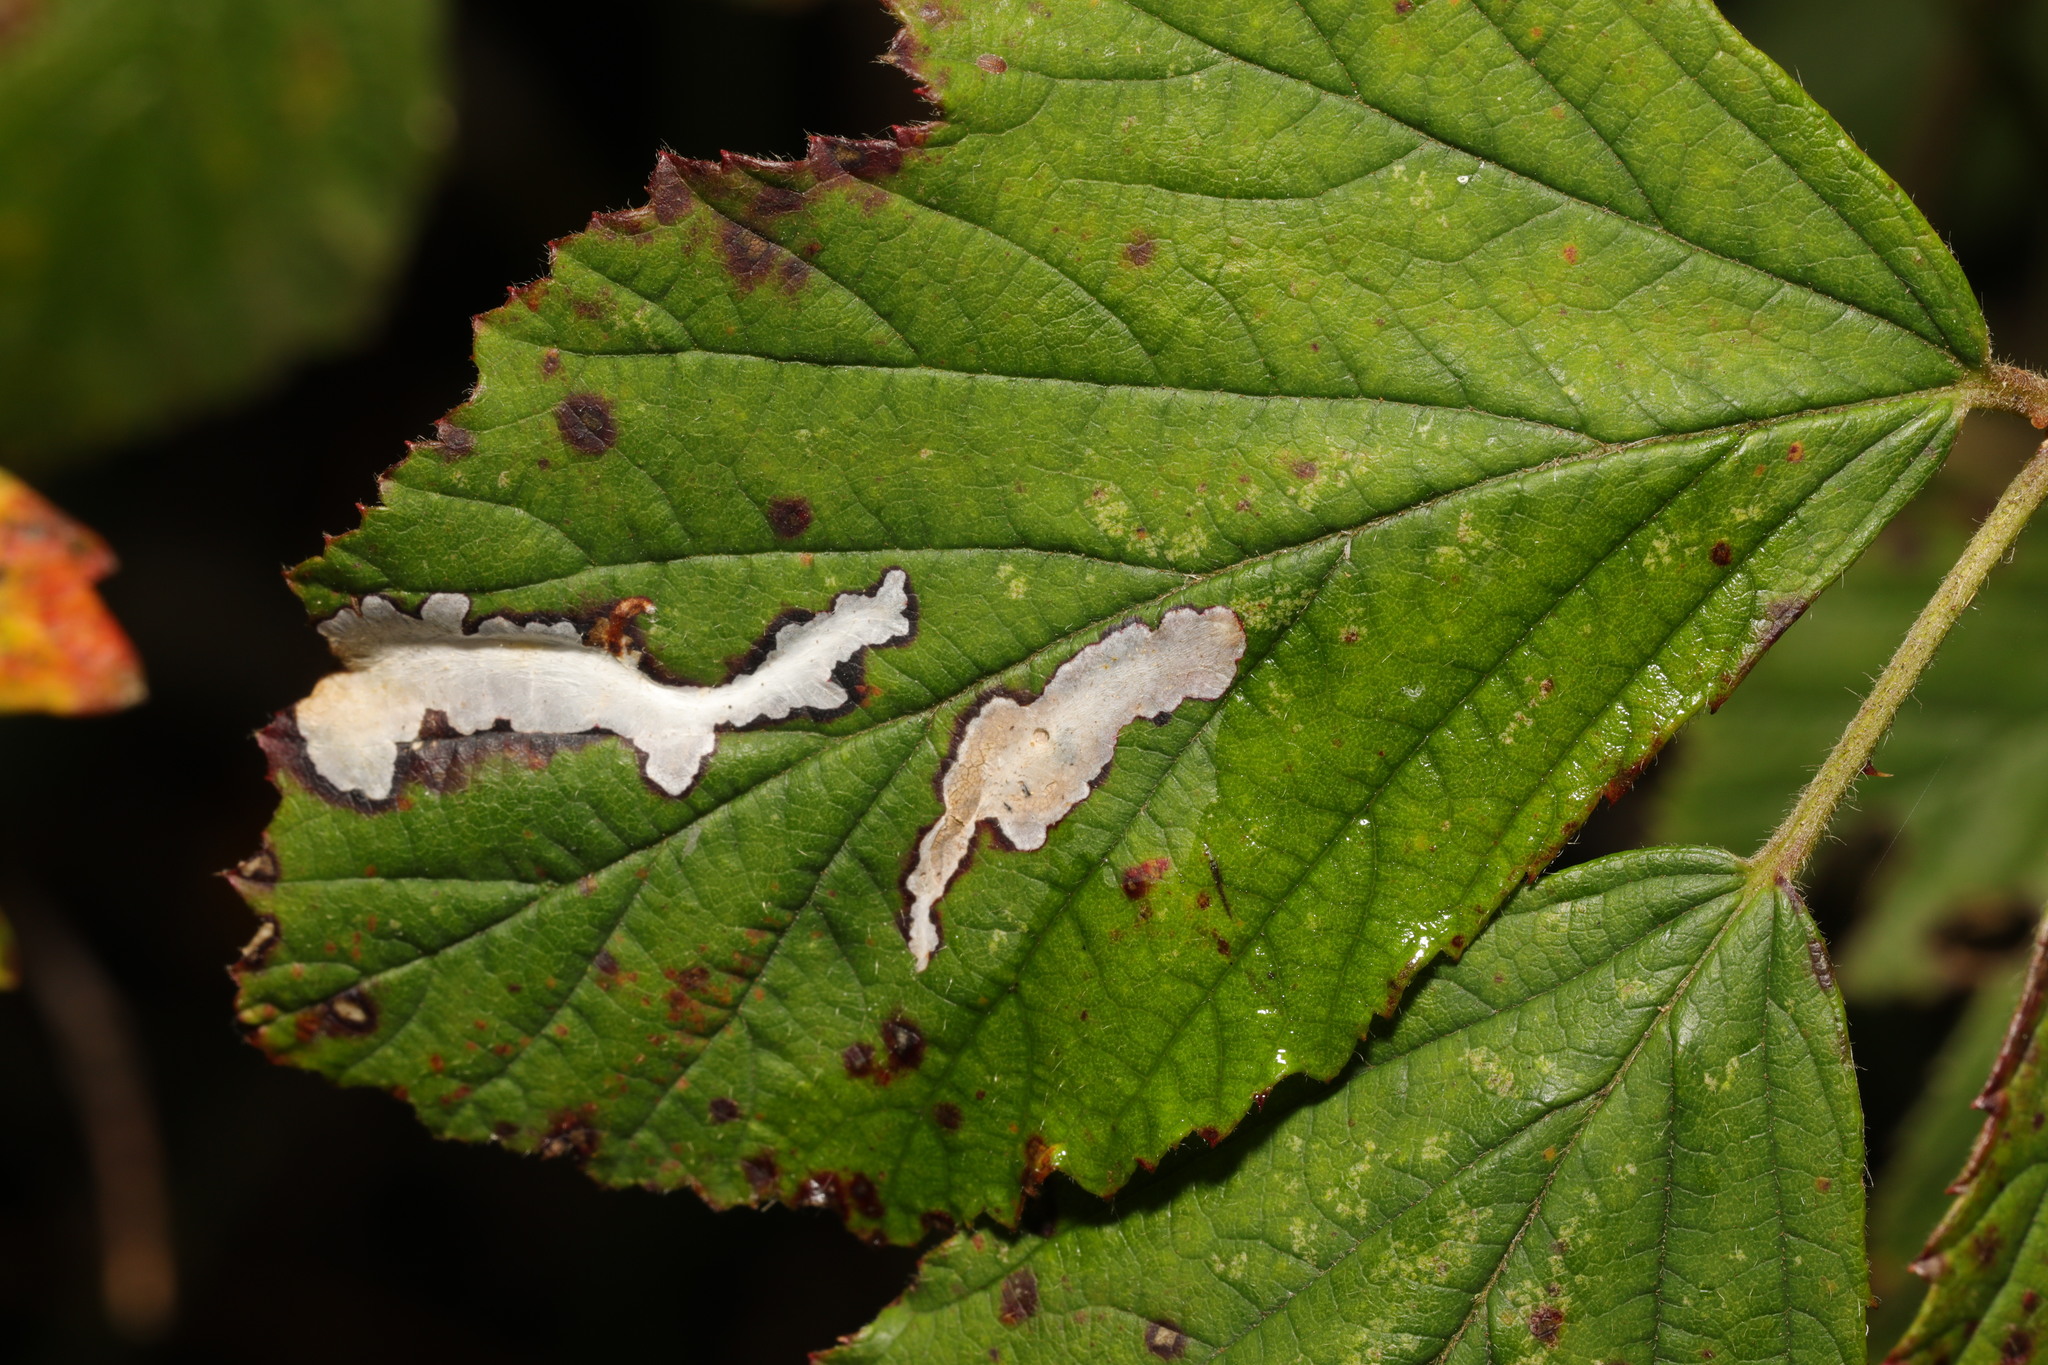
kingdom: Animalia
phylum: Arthropoda
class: Insecta
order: Lepidoptera
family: Tischeriidae
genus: Coptotriche
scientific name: Coptotriche marginea
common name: Bordered carl
